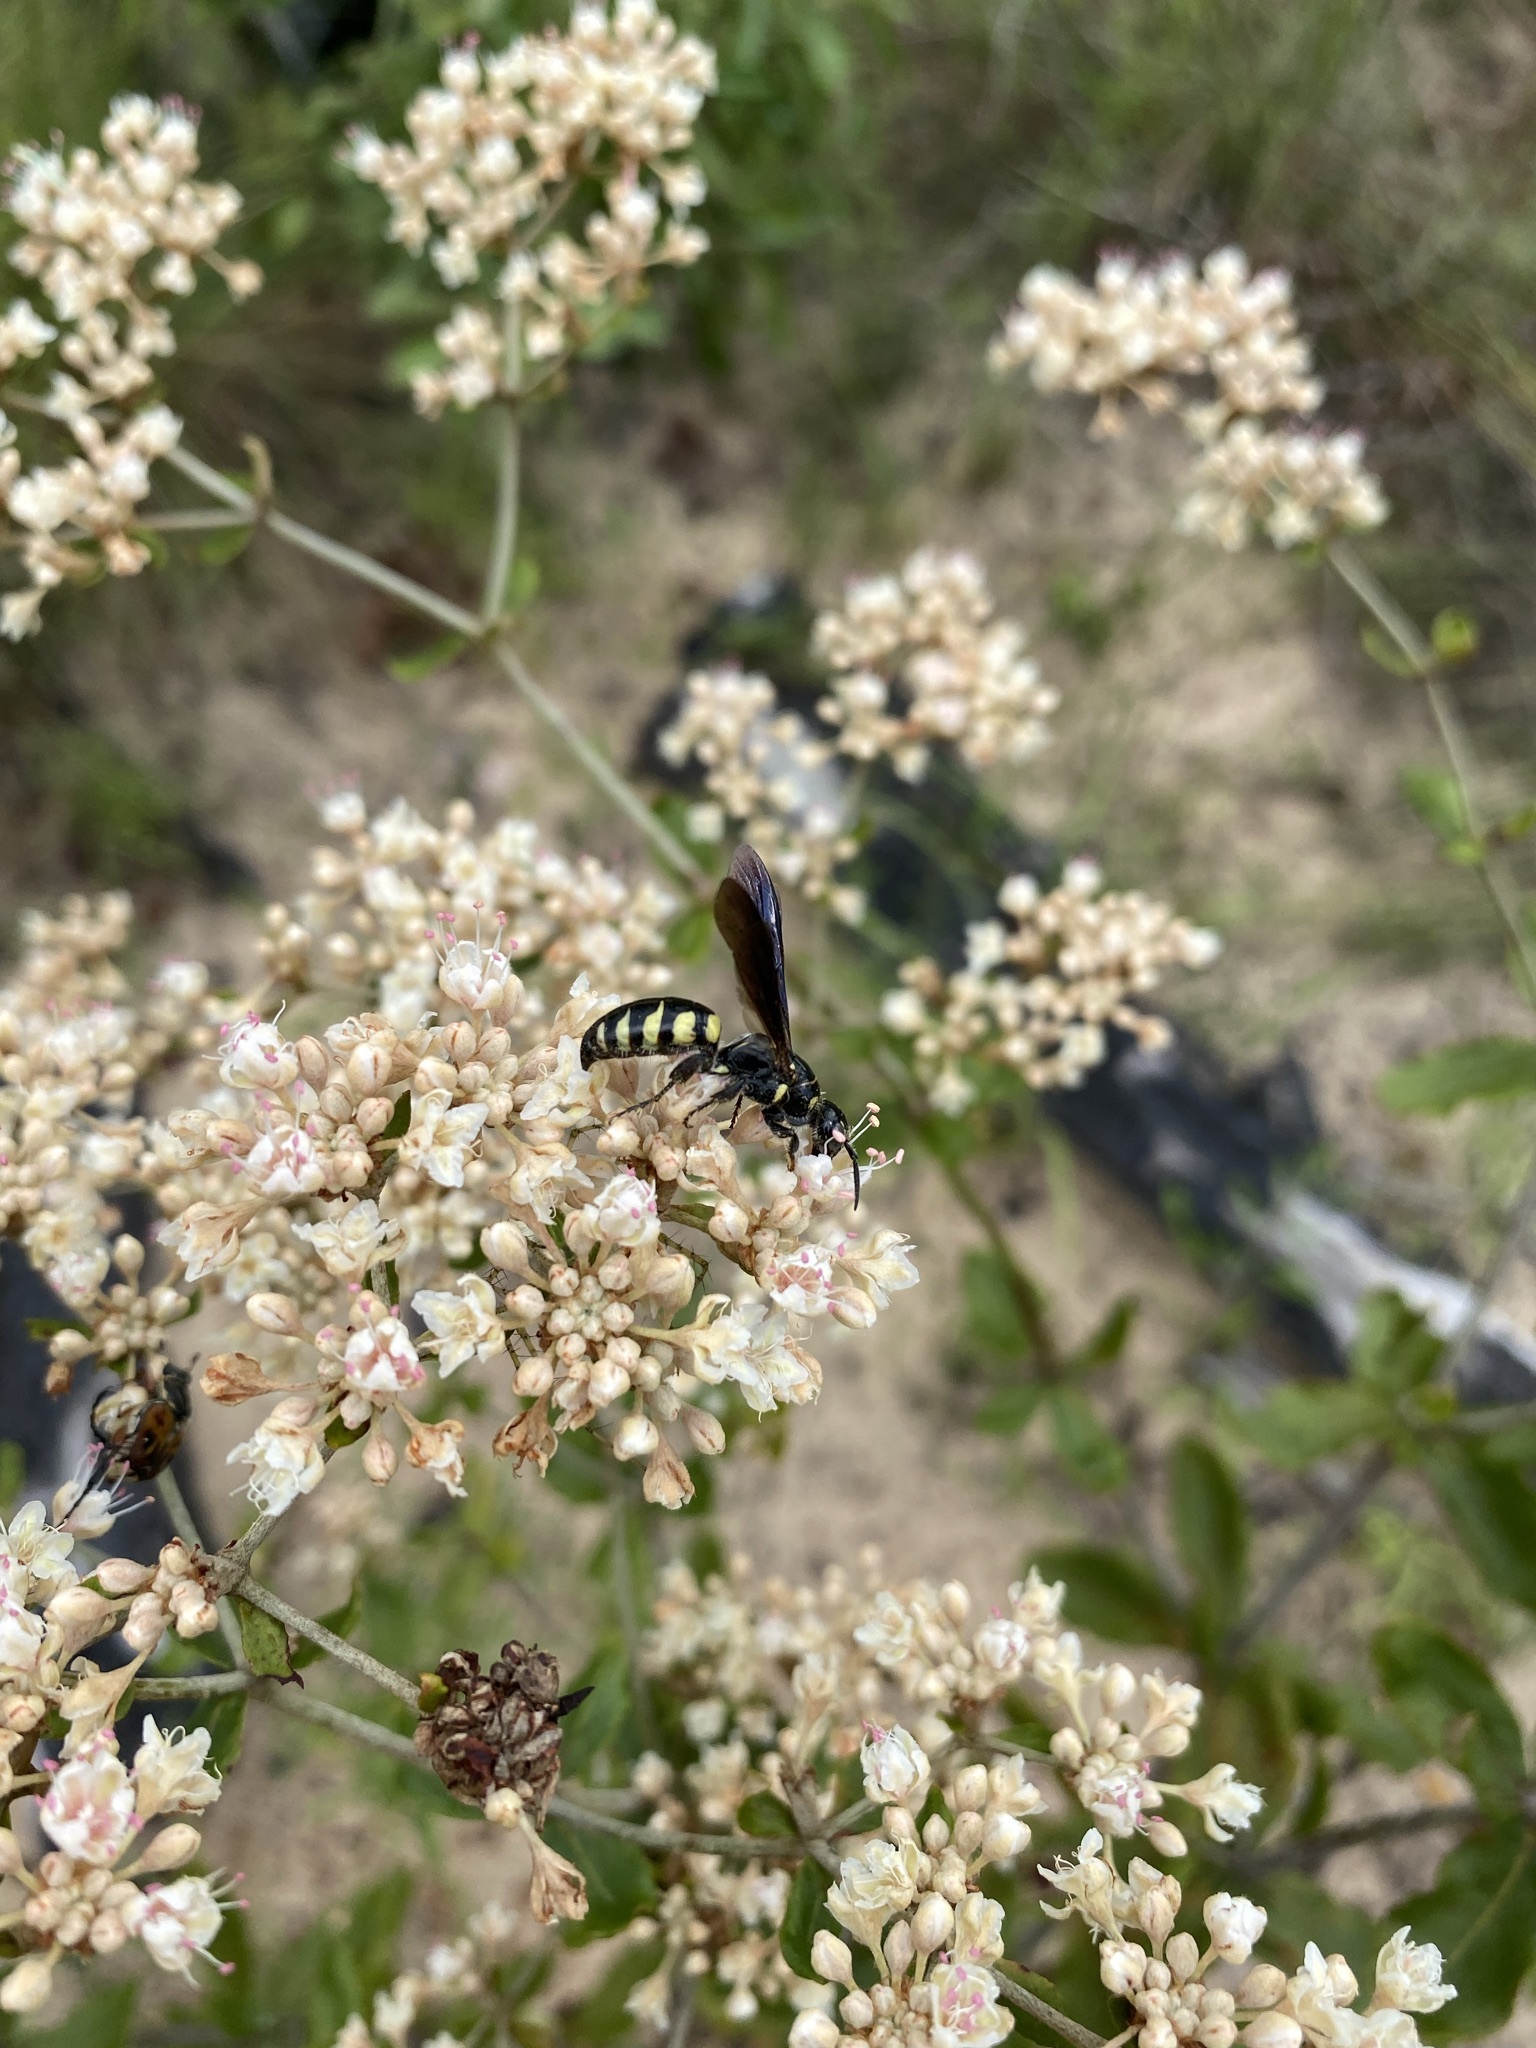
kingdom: Animalia
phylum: Arthropoda
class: Insecta
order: Hymenoptera
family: Tiphiidae
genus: Myzinum
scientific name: Myzinum obscurum
